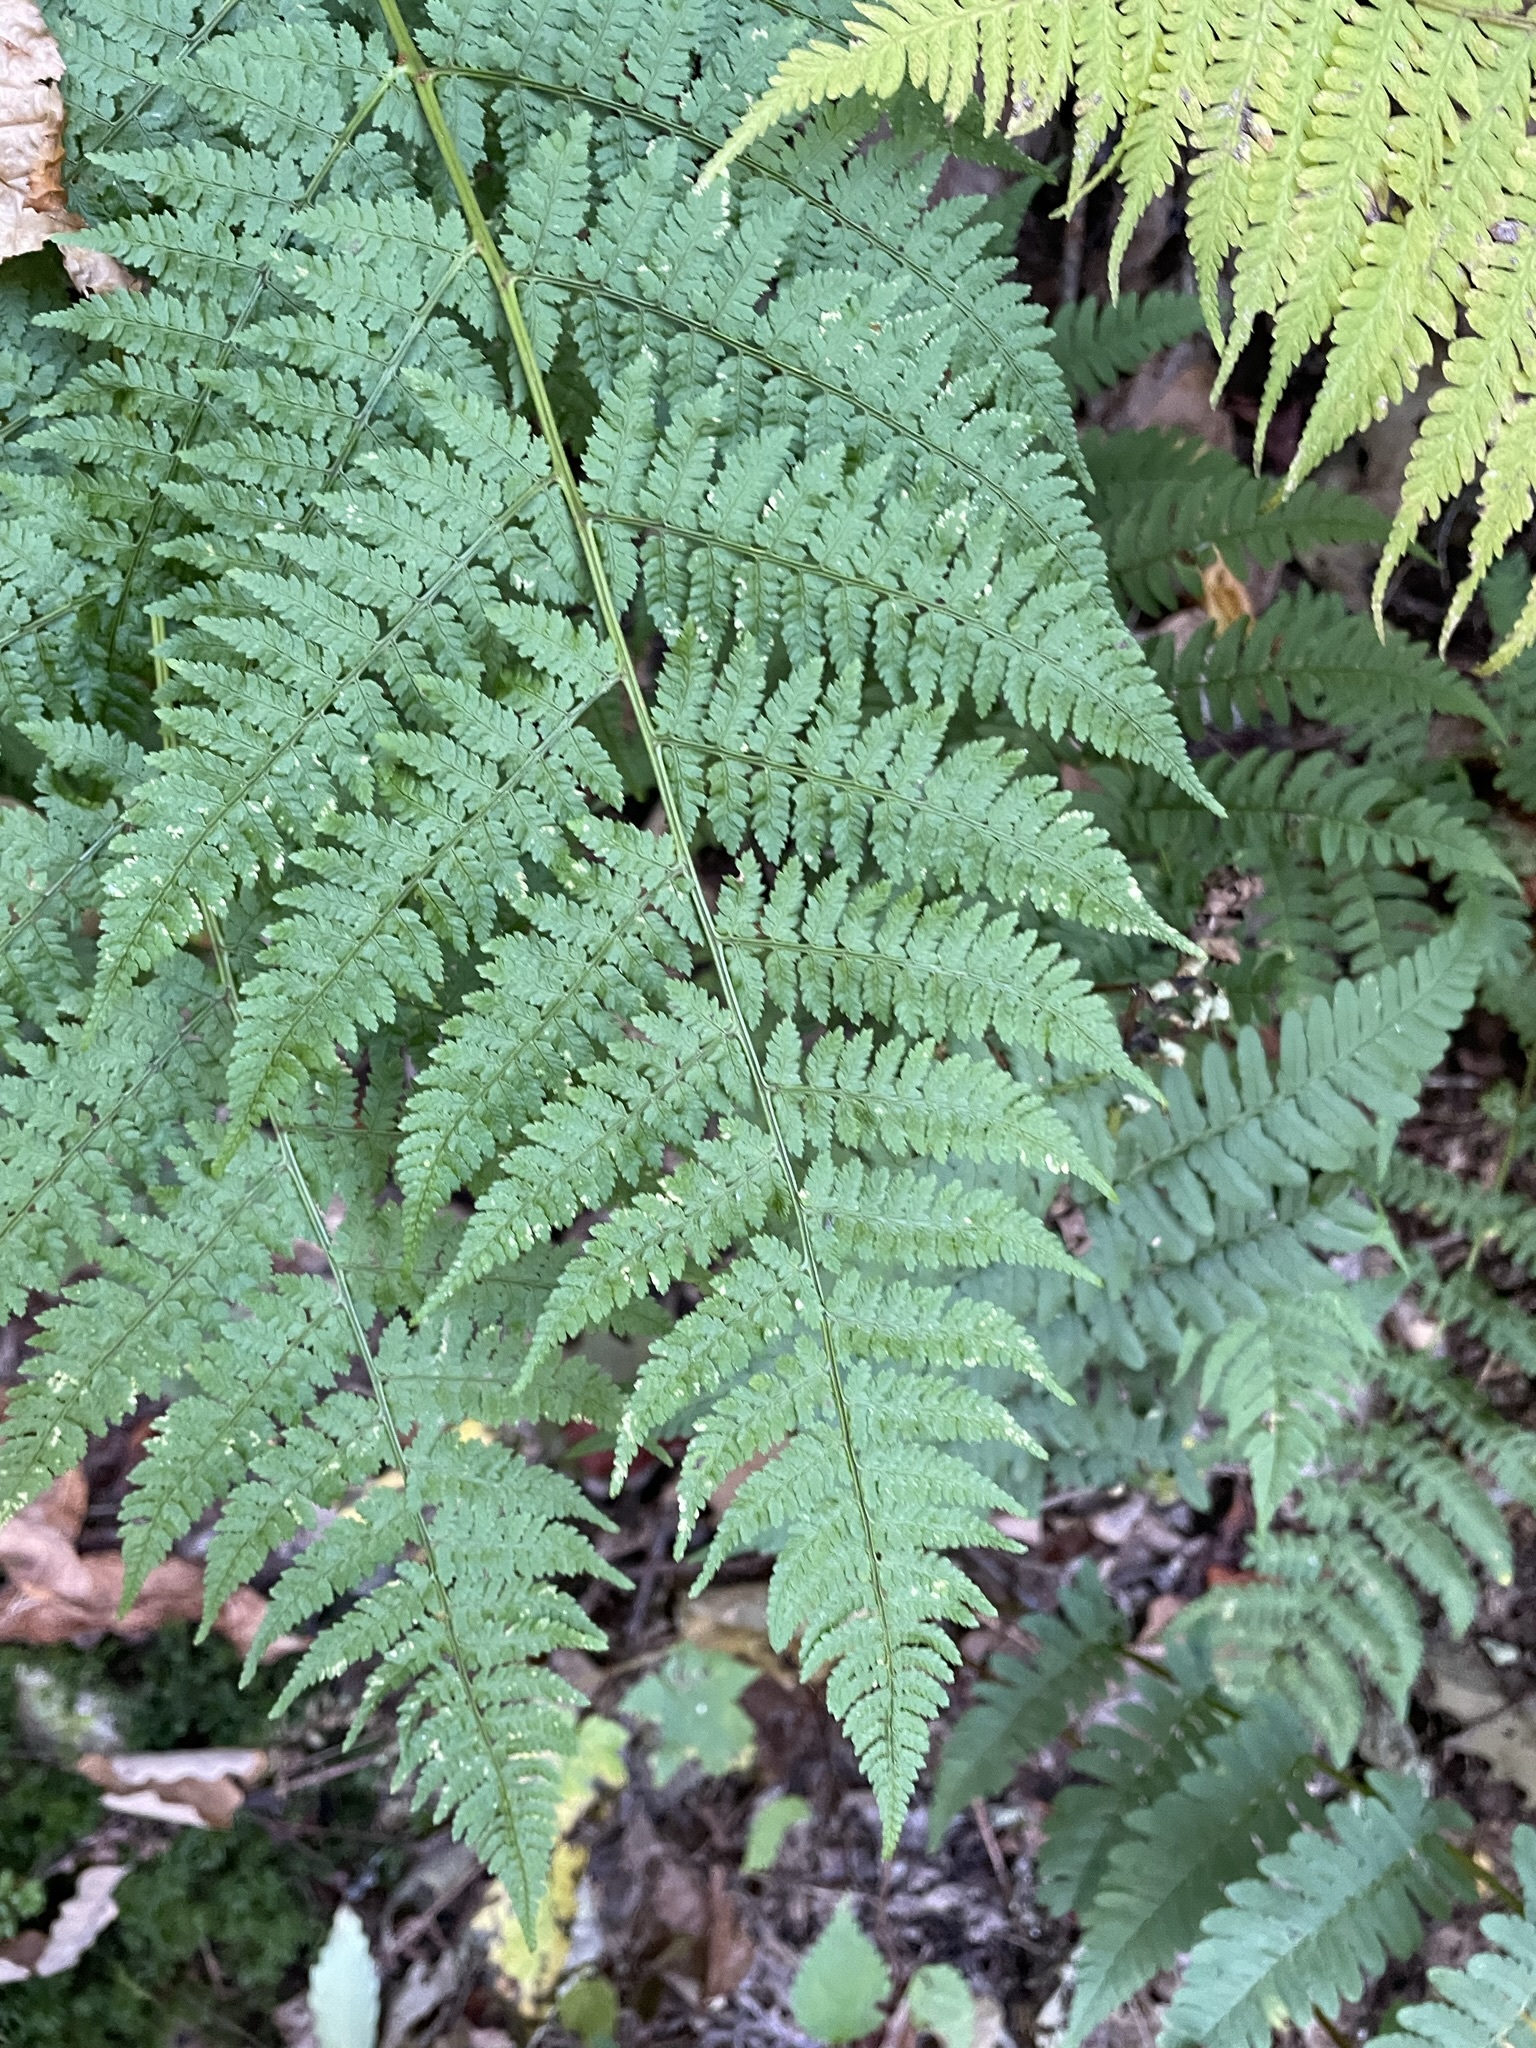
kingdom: Plantae
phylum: Tracheophyta
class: Polypodiopsida
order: Polypodiales
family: Dryopteridaceae
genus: Dryopteris
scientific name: Dryopteris intermedia
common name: Evergreen wood fern
